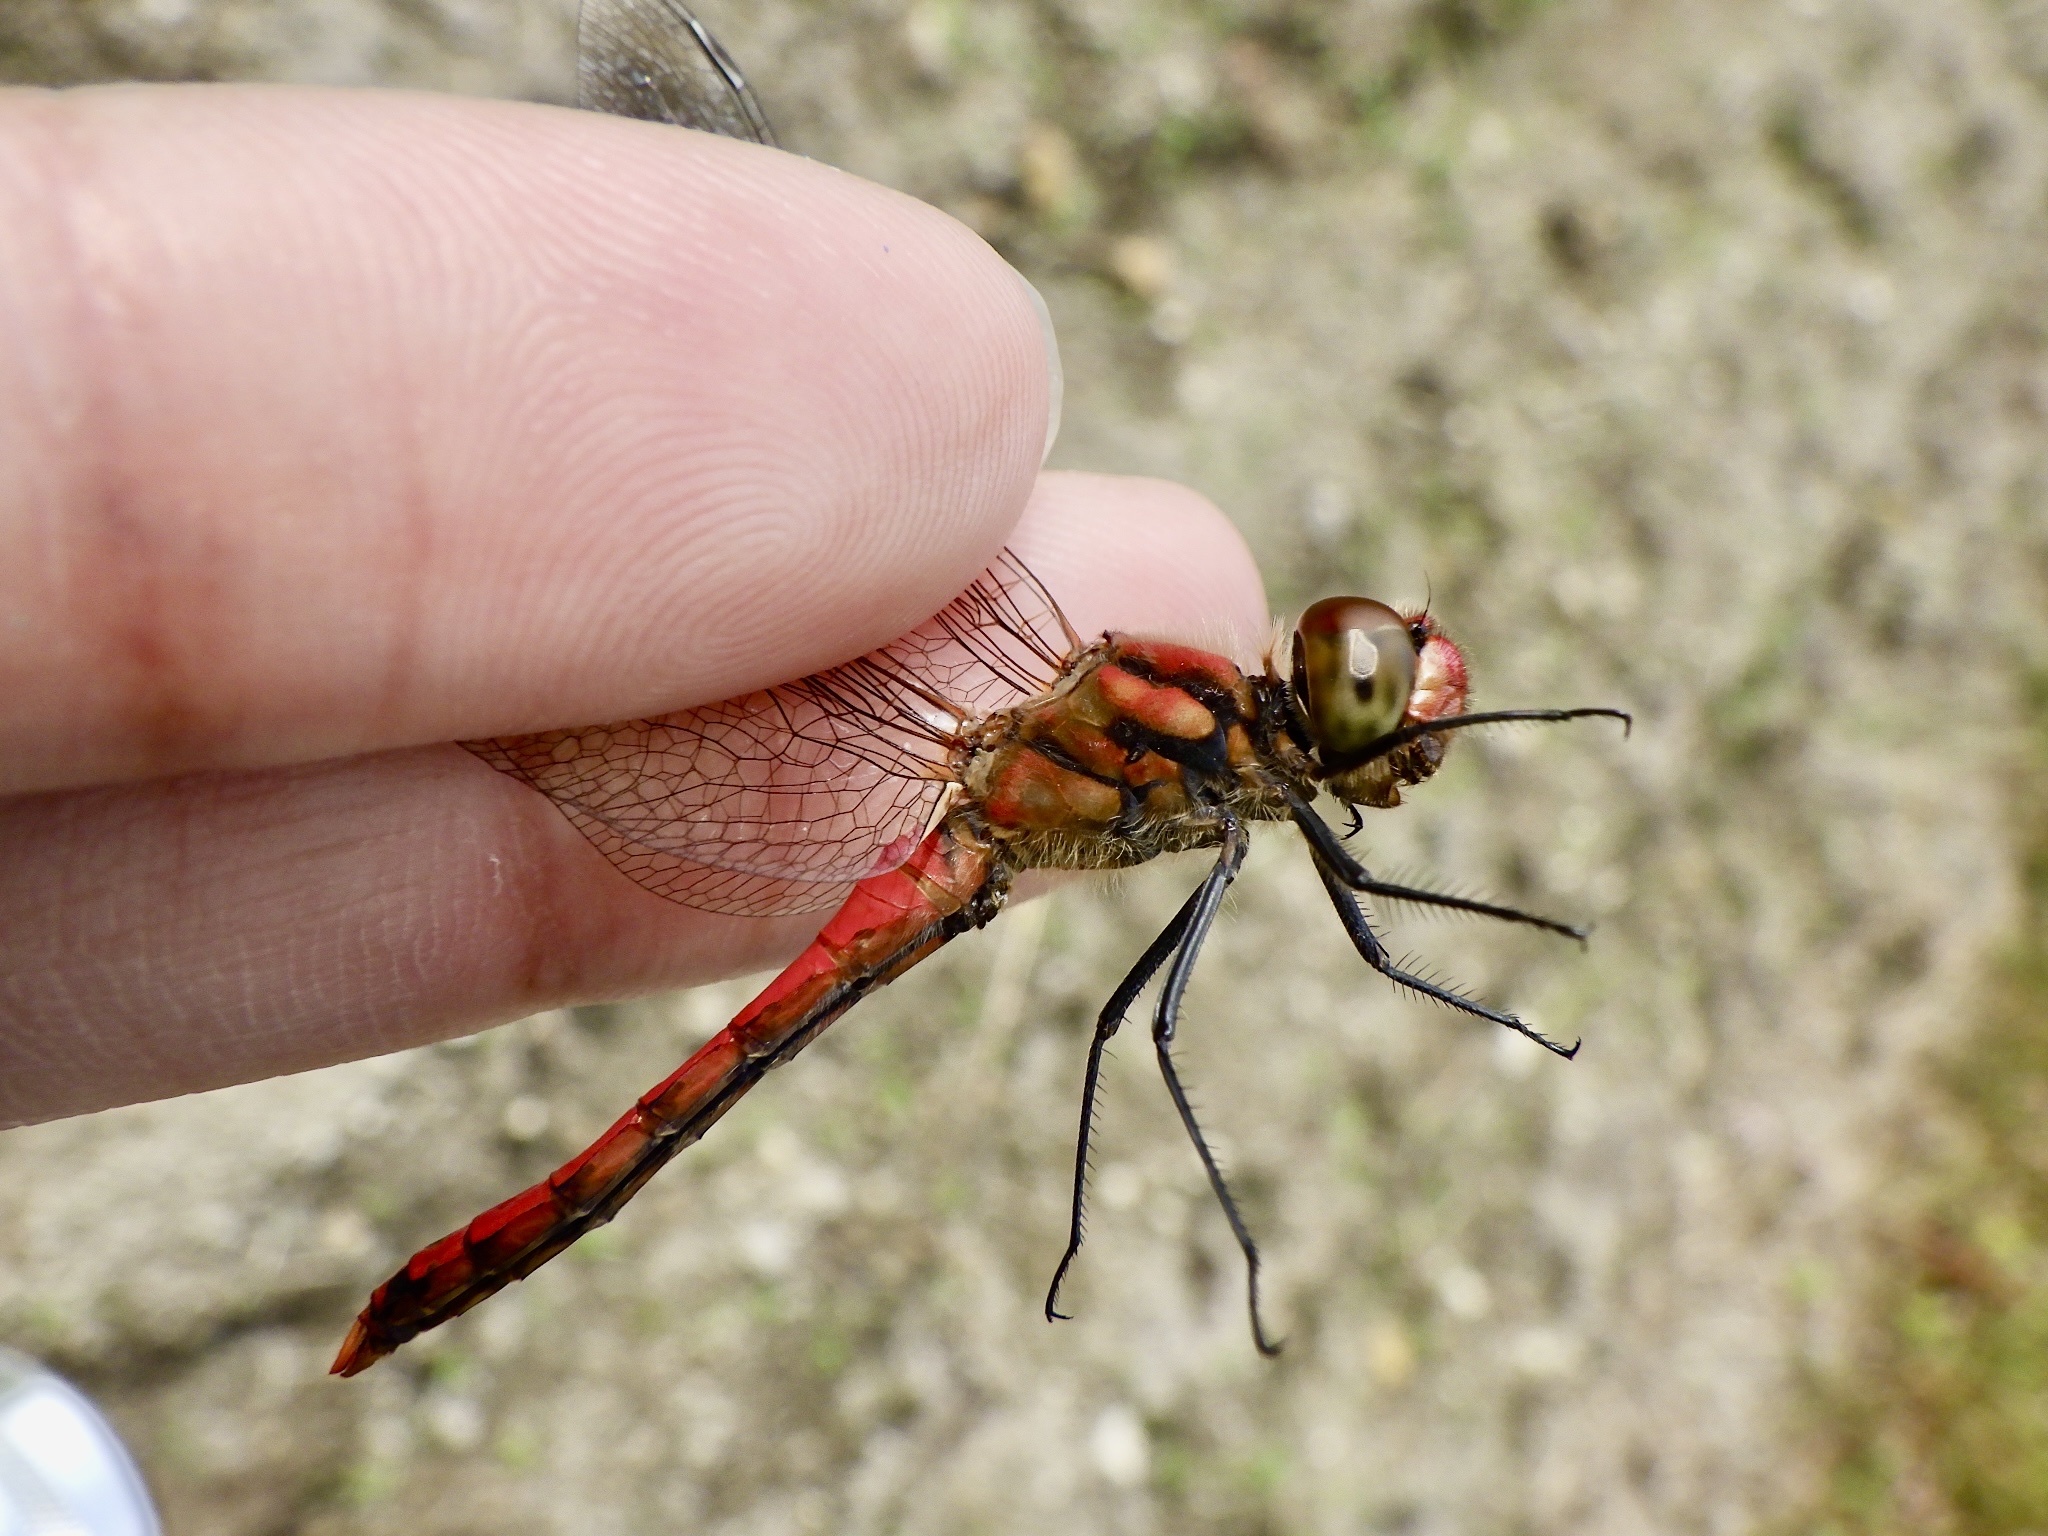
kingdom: Animalia
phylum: Arthropoda
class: Insecta
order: Odonata
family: Libellulidae
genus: Sympetrum
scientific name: Sympetrum darwinianum
